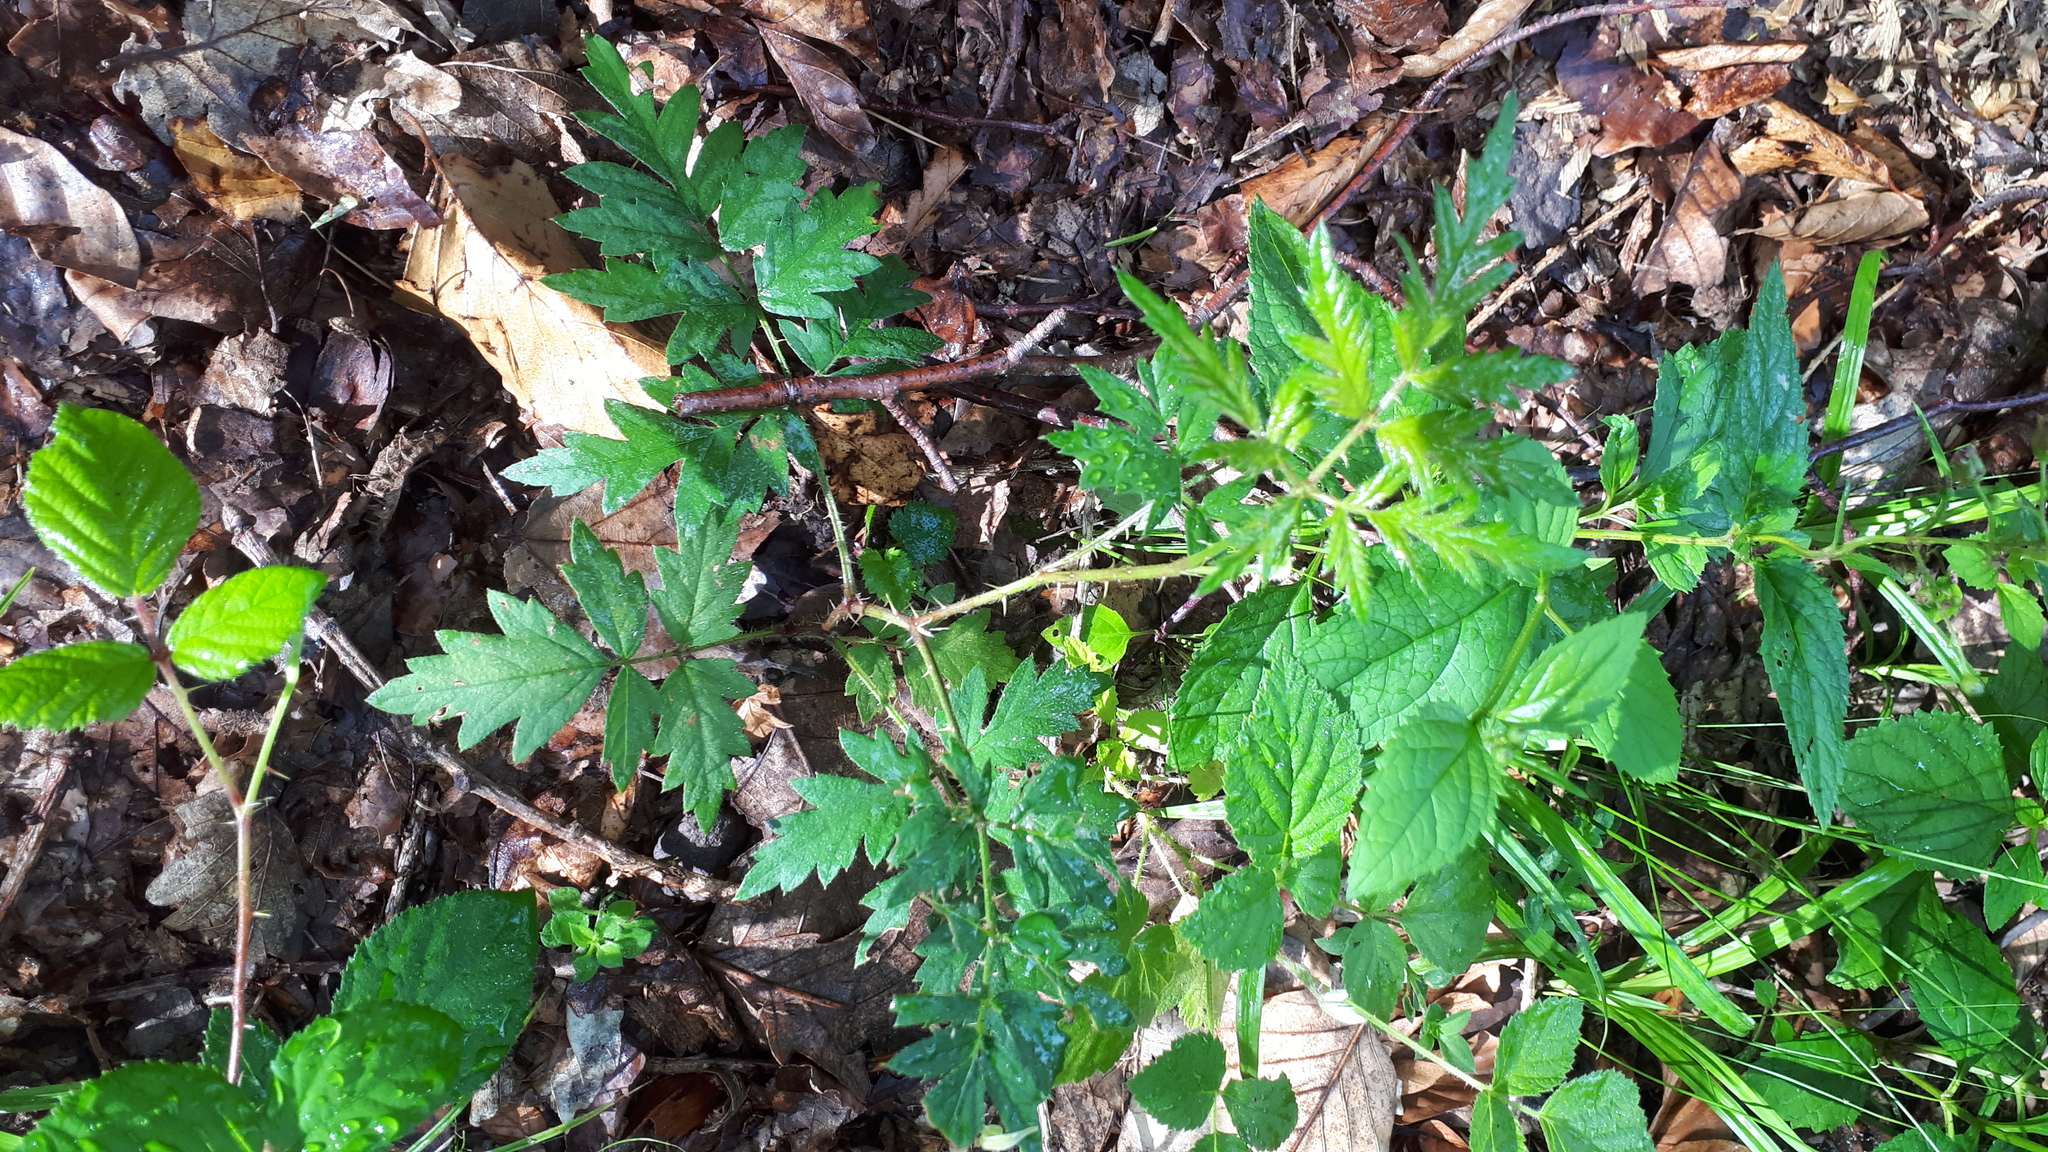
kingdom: Plantae
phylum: Tracheophyta
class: Magnoliopsida
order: Rosales
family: Rosaceae
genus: Rubus
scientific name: Rubus laciniatus
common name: Evergreen blackberry
